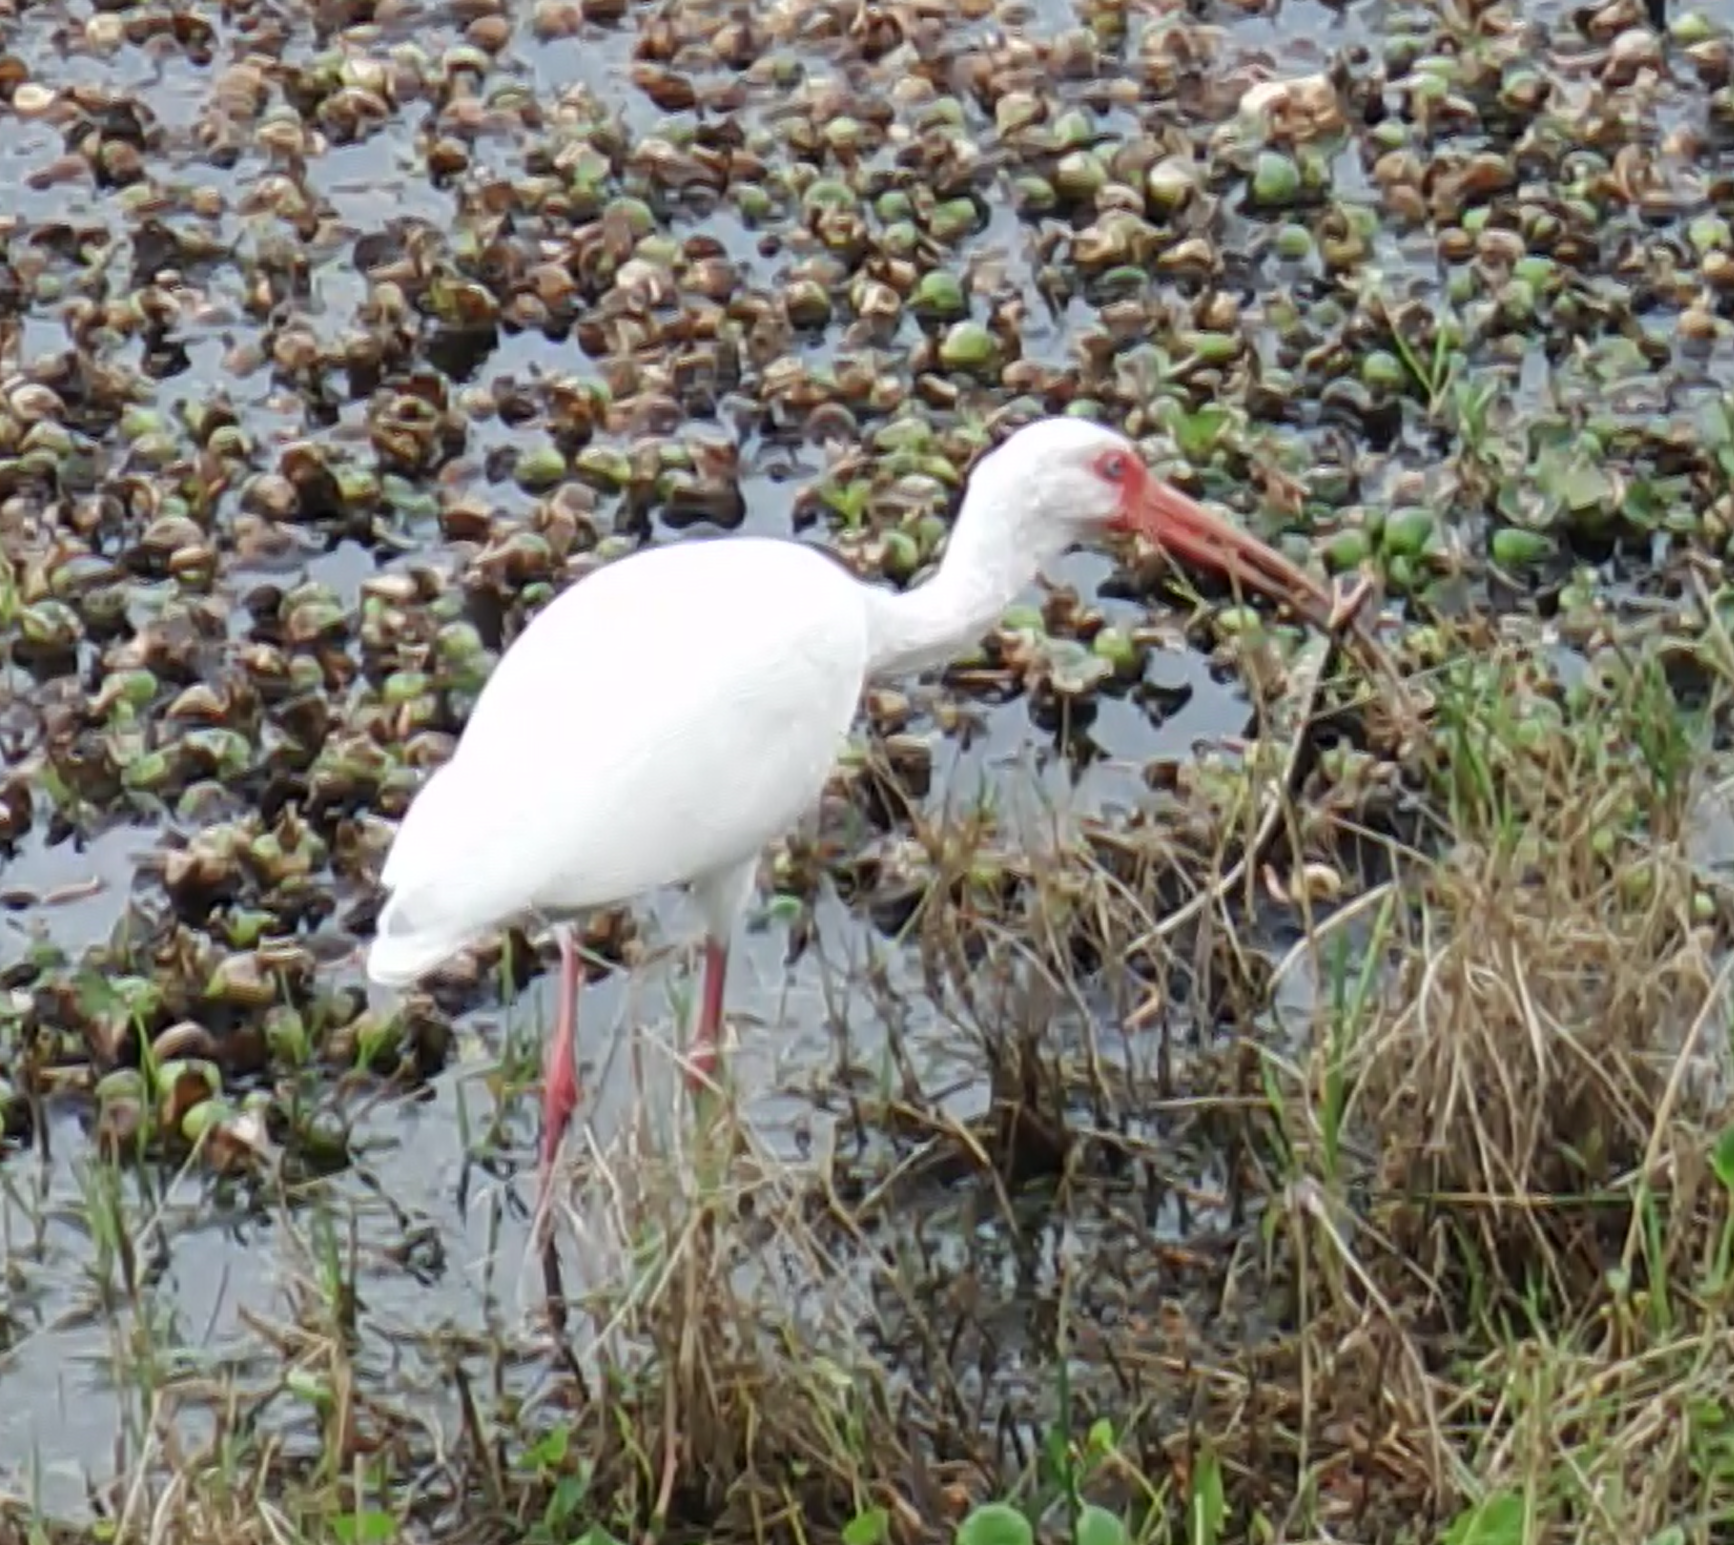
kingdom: Animalia
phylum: Chordata
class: Aves
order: Pelecaniformes
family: Threskiornithidae
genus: Eudocimus
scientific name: Eudocimus albus
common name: White ibis
